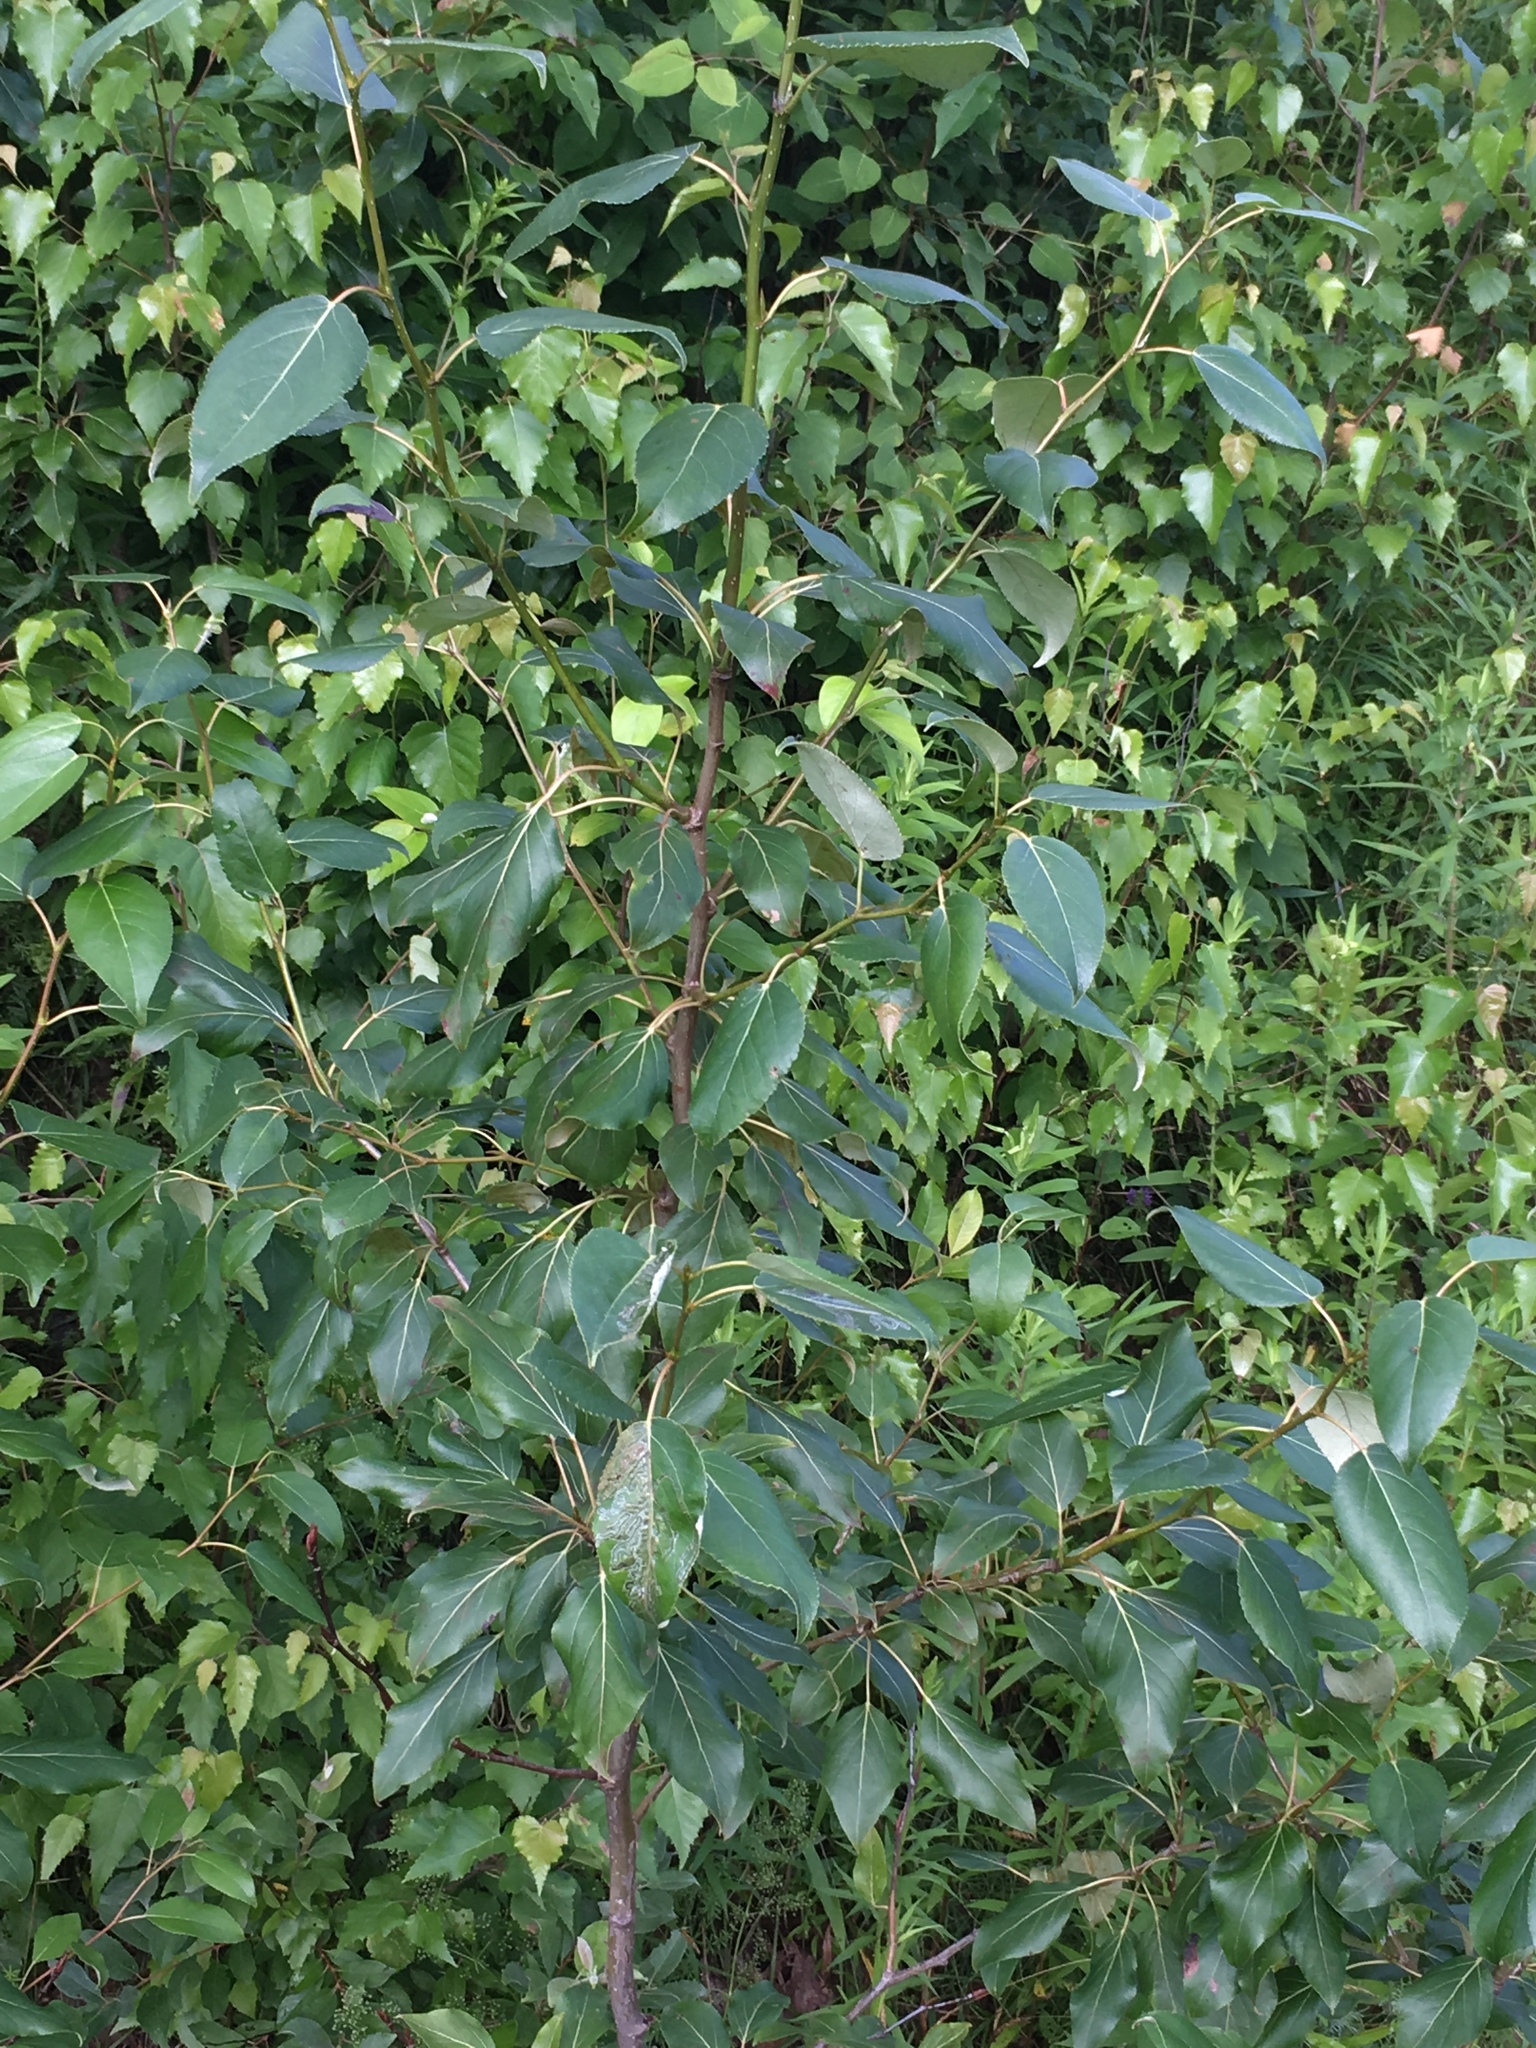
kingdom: Plantae
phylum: Tracheophyta
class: Magnoliopsida
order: Malpighiales
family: Salicaceae
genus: Populus
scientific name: Populus balsamifera
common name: Balsam poplar
